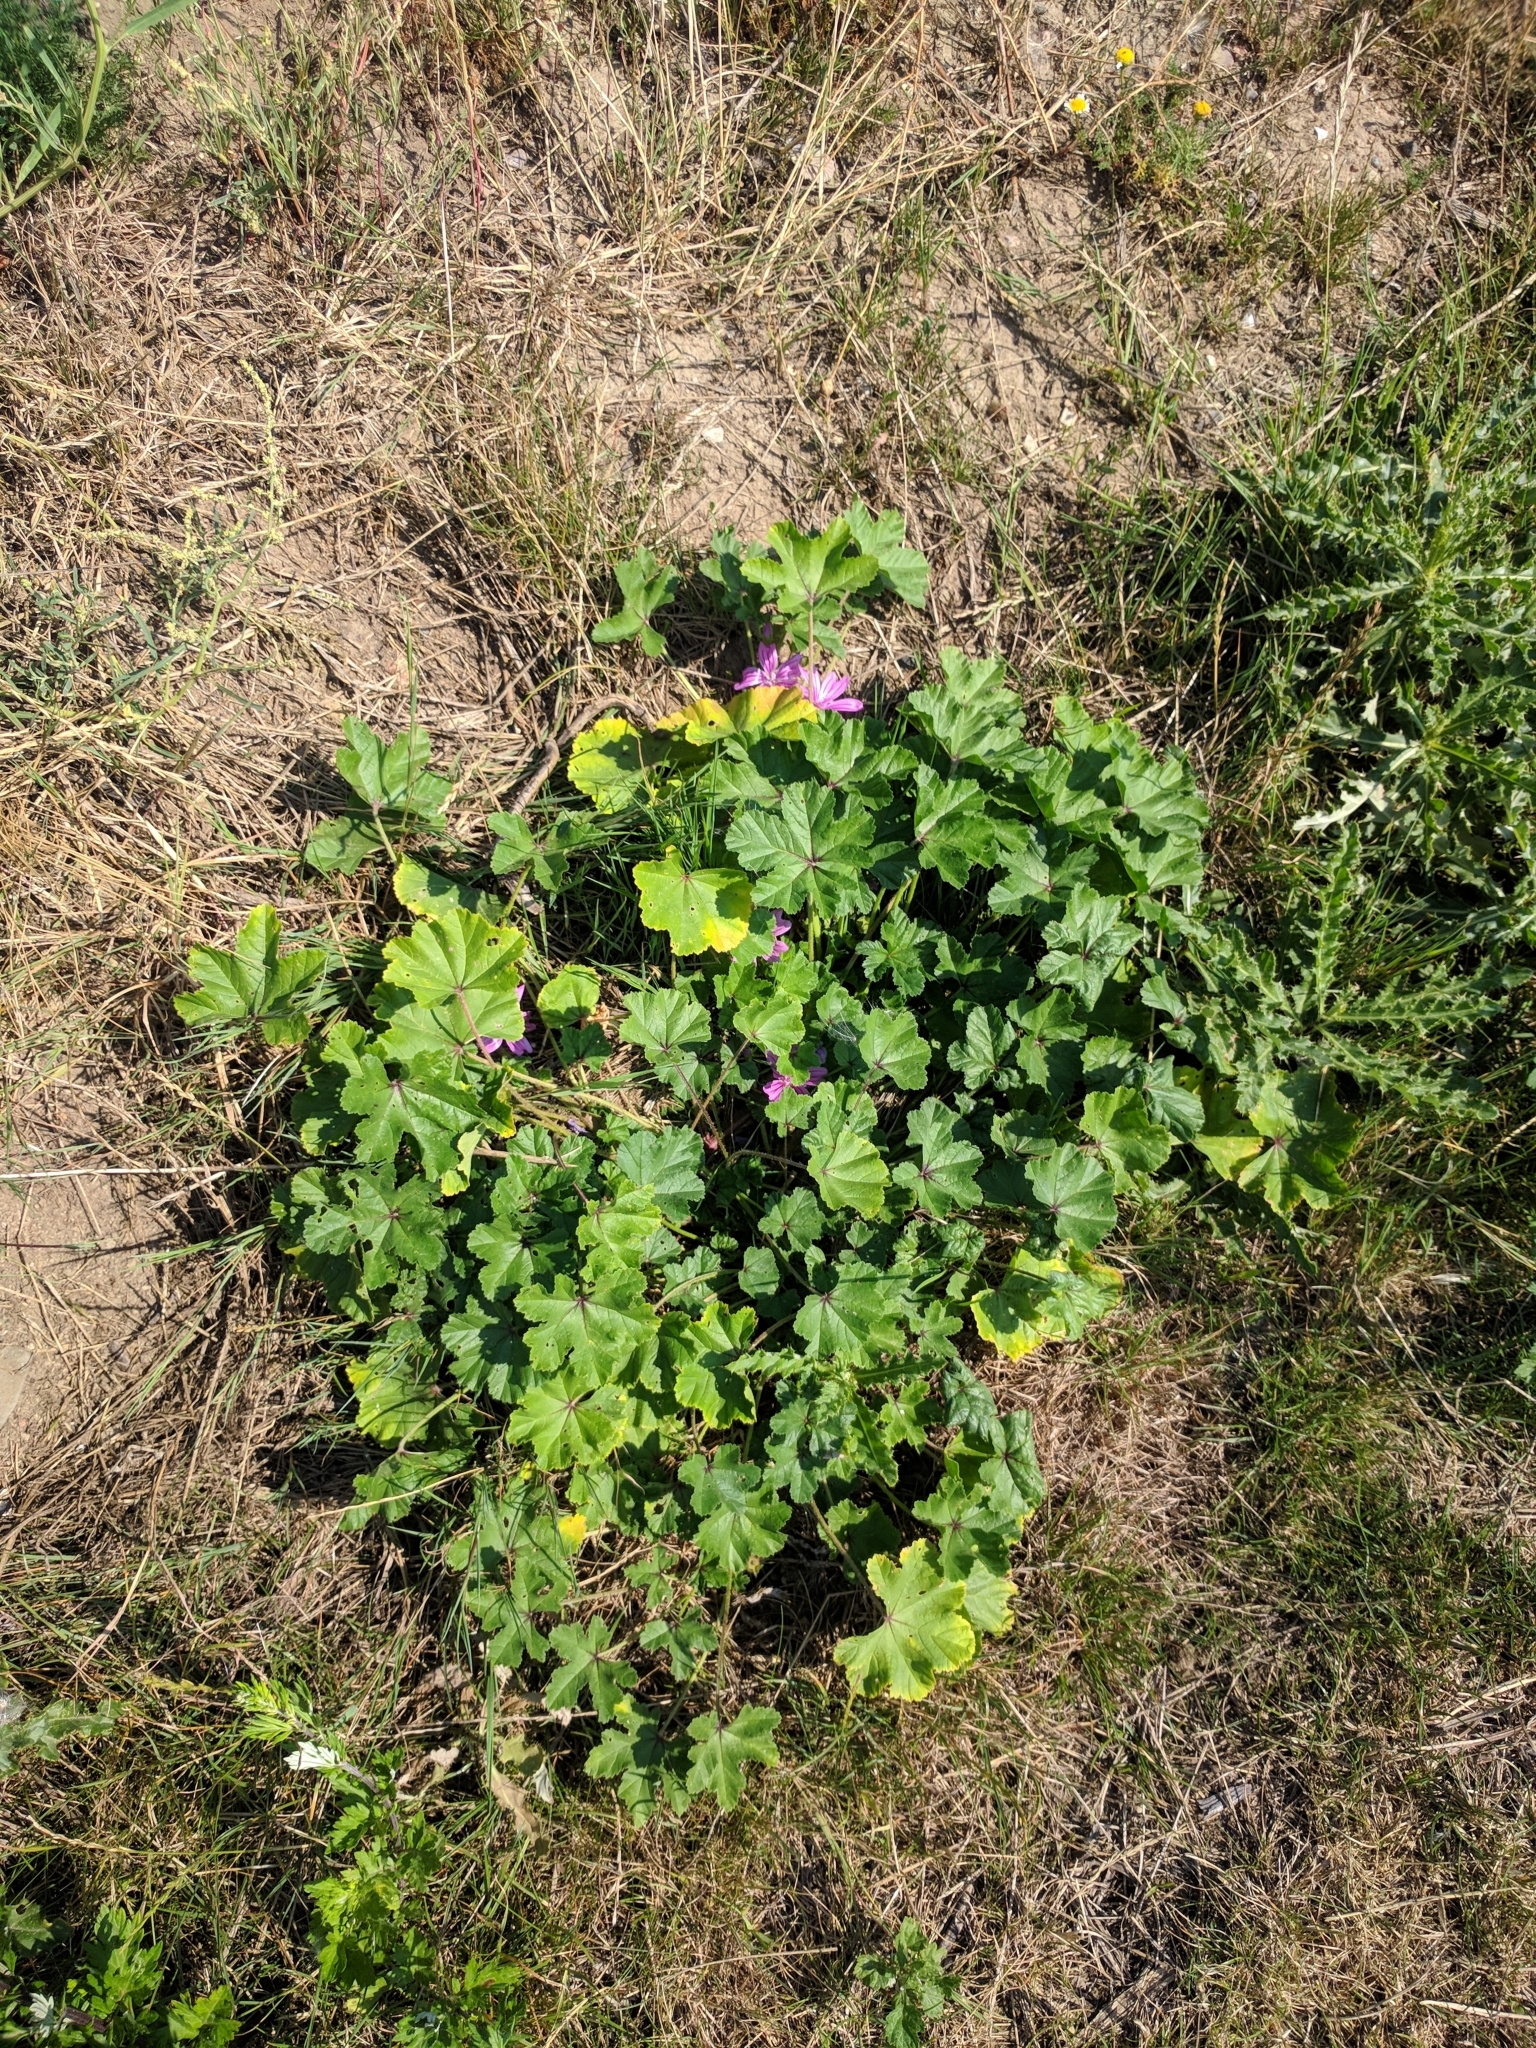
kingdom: Plantae
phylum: Tracheophyta
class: Magnoliopsida
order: Malvales
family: Malvaceae
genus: Malva
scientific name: Malva sylvestris
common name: Common mallow
